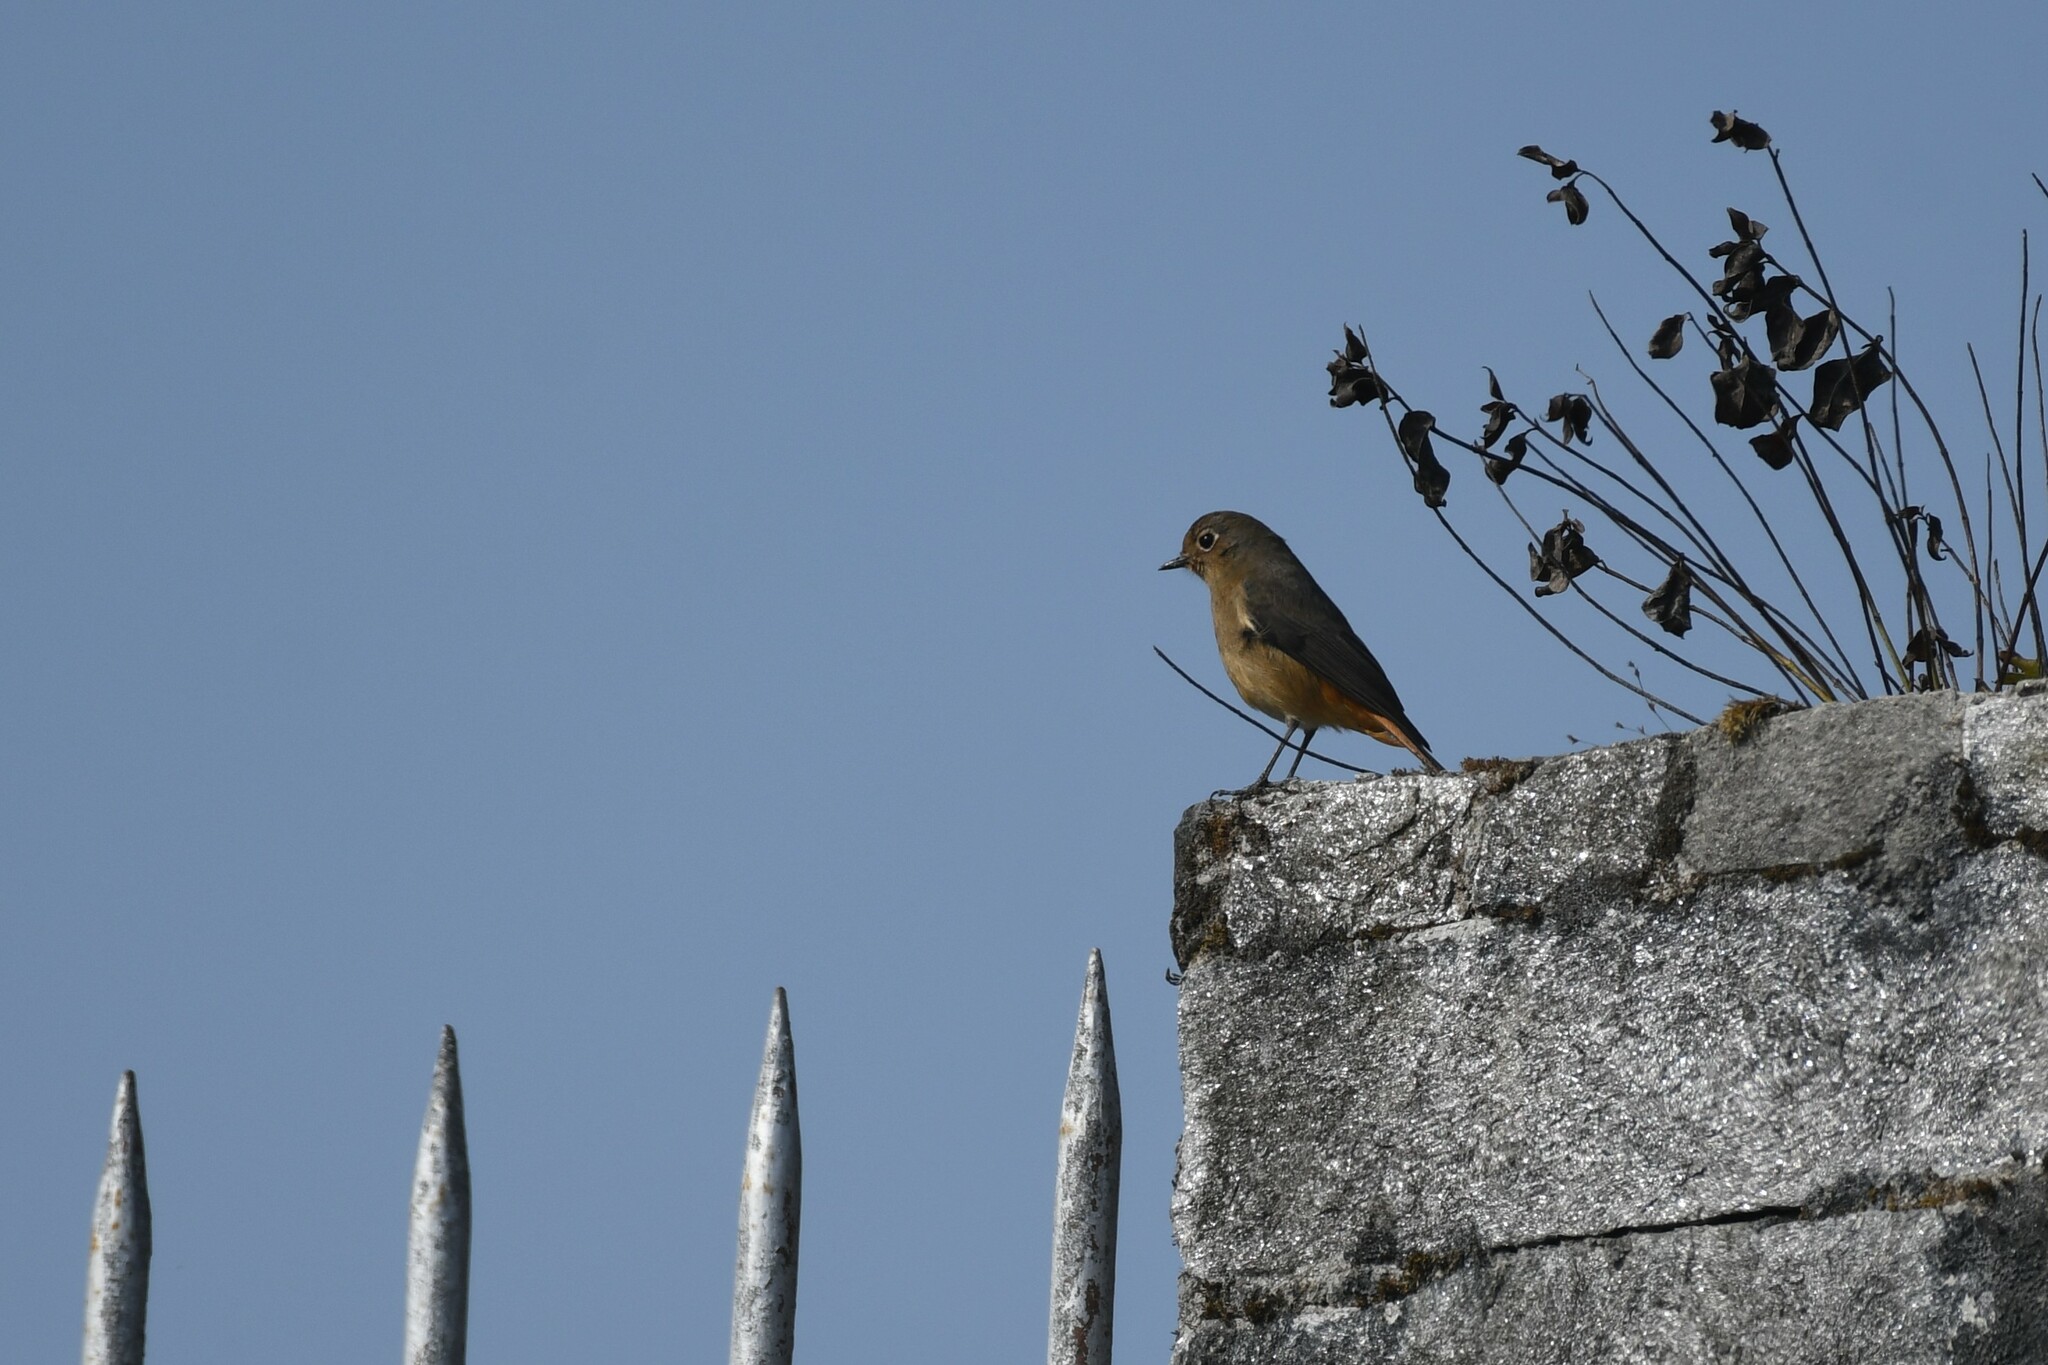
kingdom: Animalia
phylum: Chordata
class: Aves
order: Passeriformes
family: Muscicapidae
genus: Phoenicurus
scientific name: Phoenicurus frontalis
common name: Blue-fronted redstart
